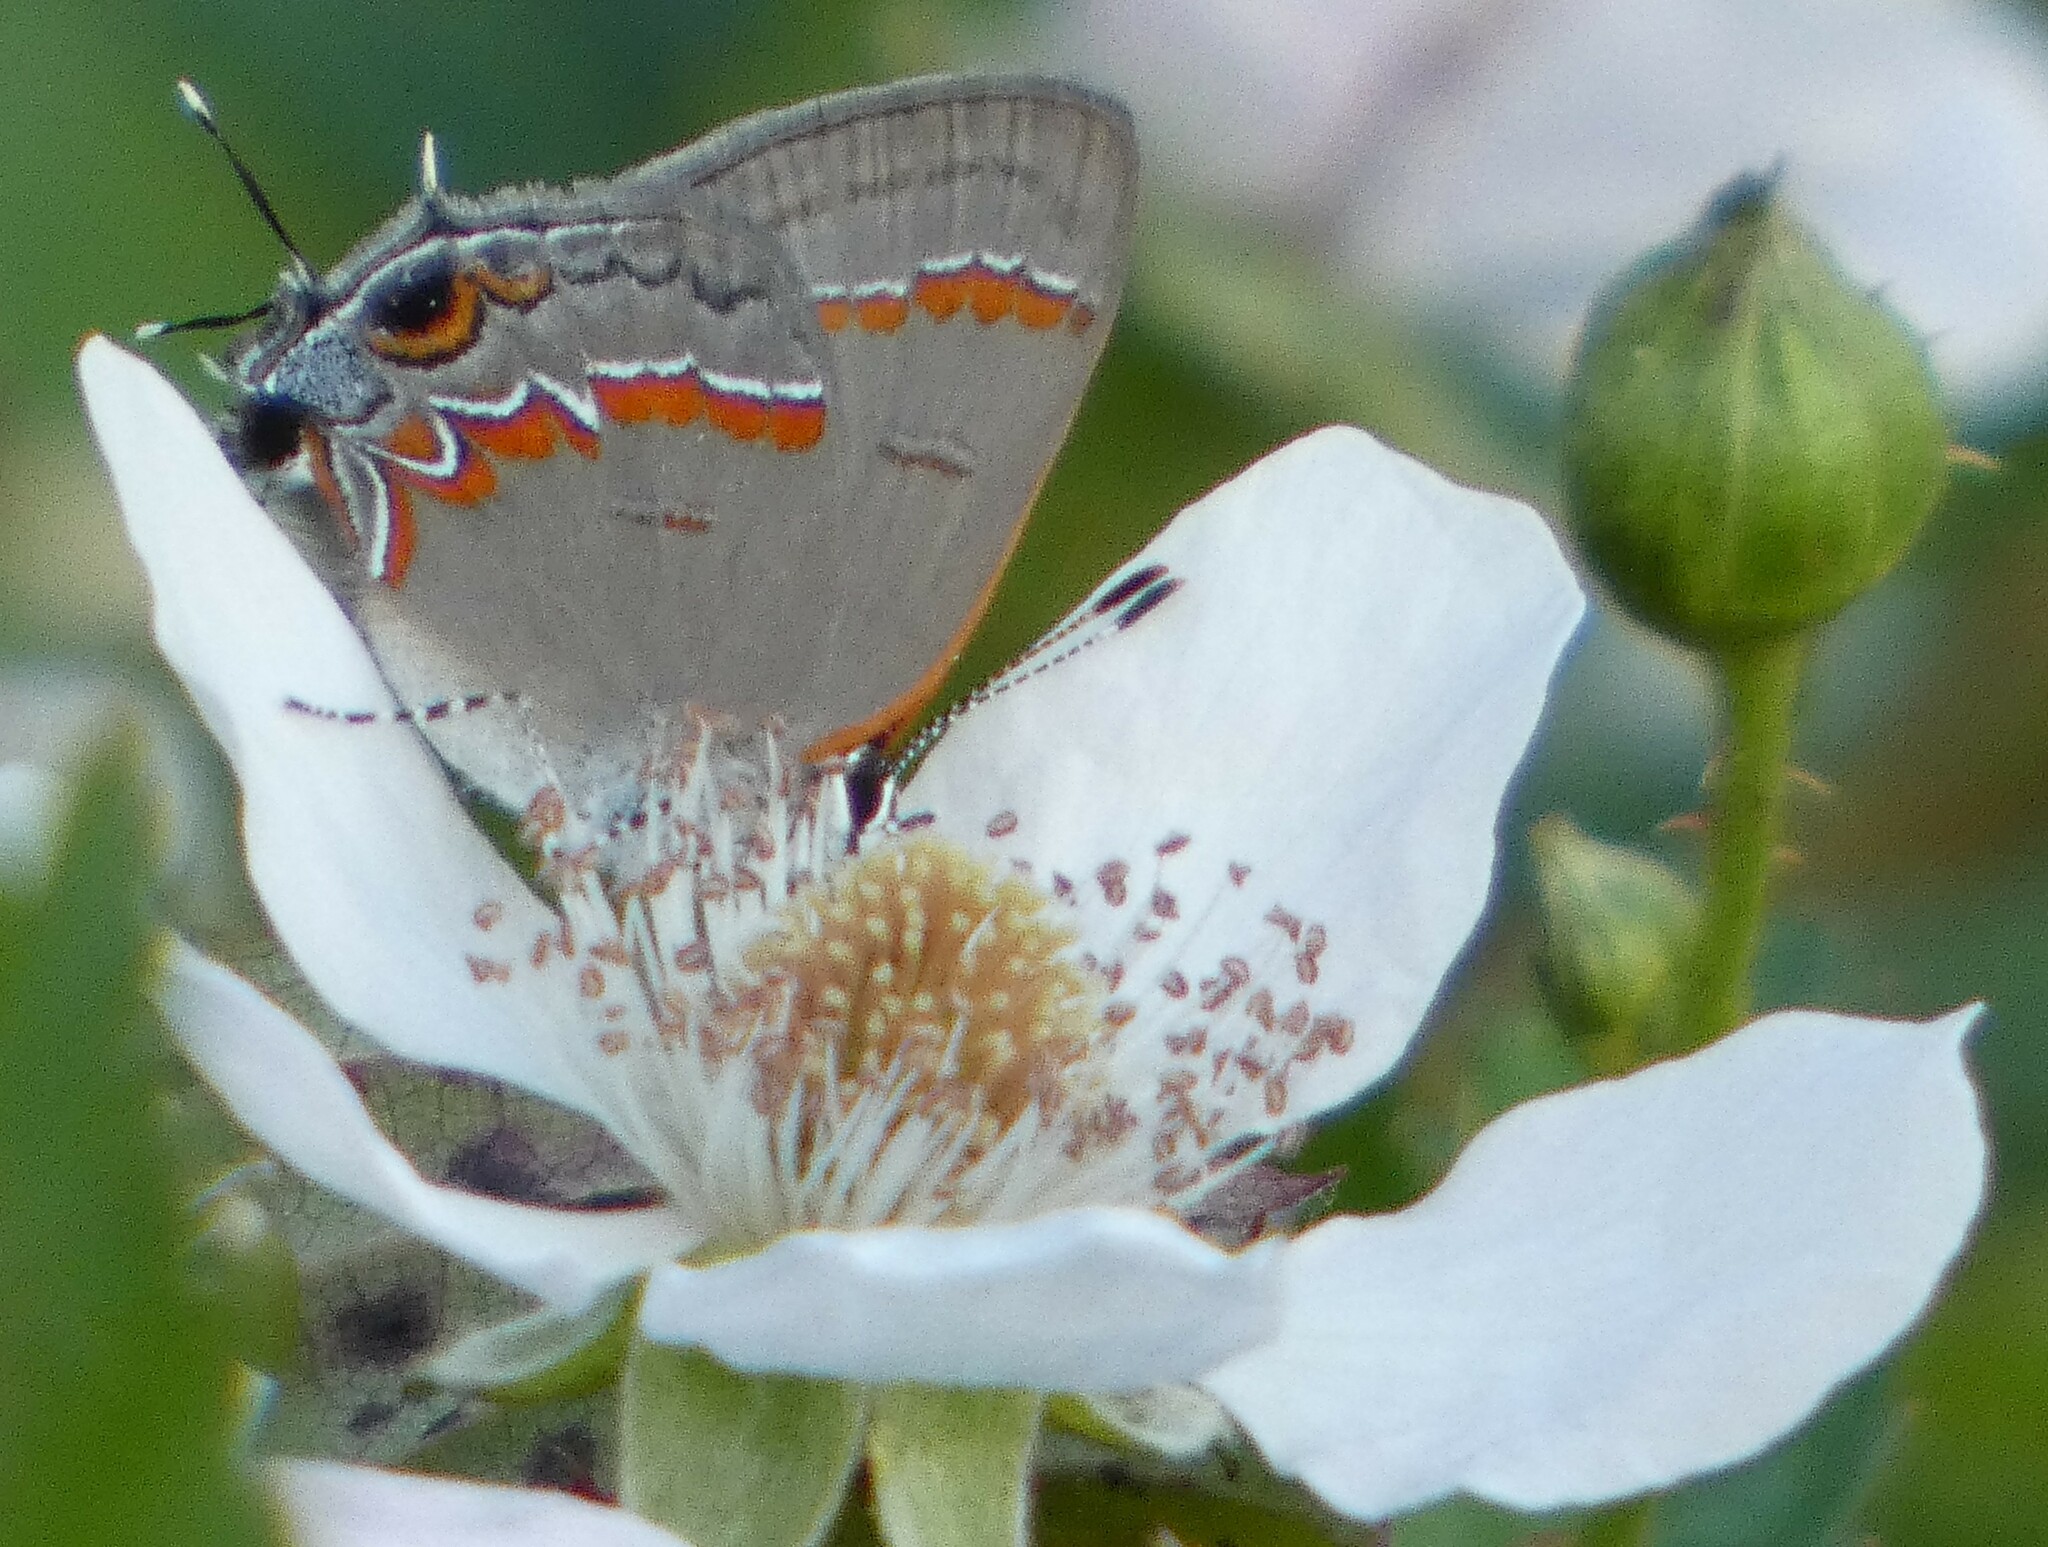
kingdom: Animalia
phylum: Arthropoda
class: Insecta
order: Lepidoptera
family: Lycaenidae
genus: Calycopis
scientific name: Calycopis cecrops
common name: Red-banded hairstreak
